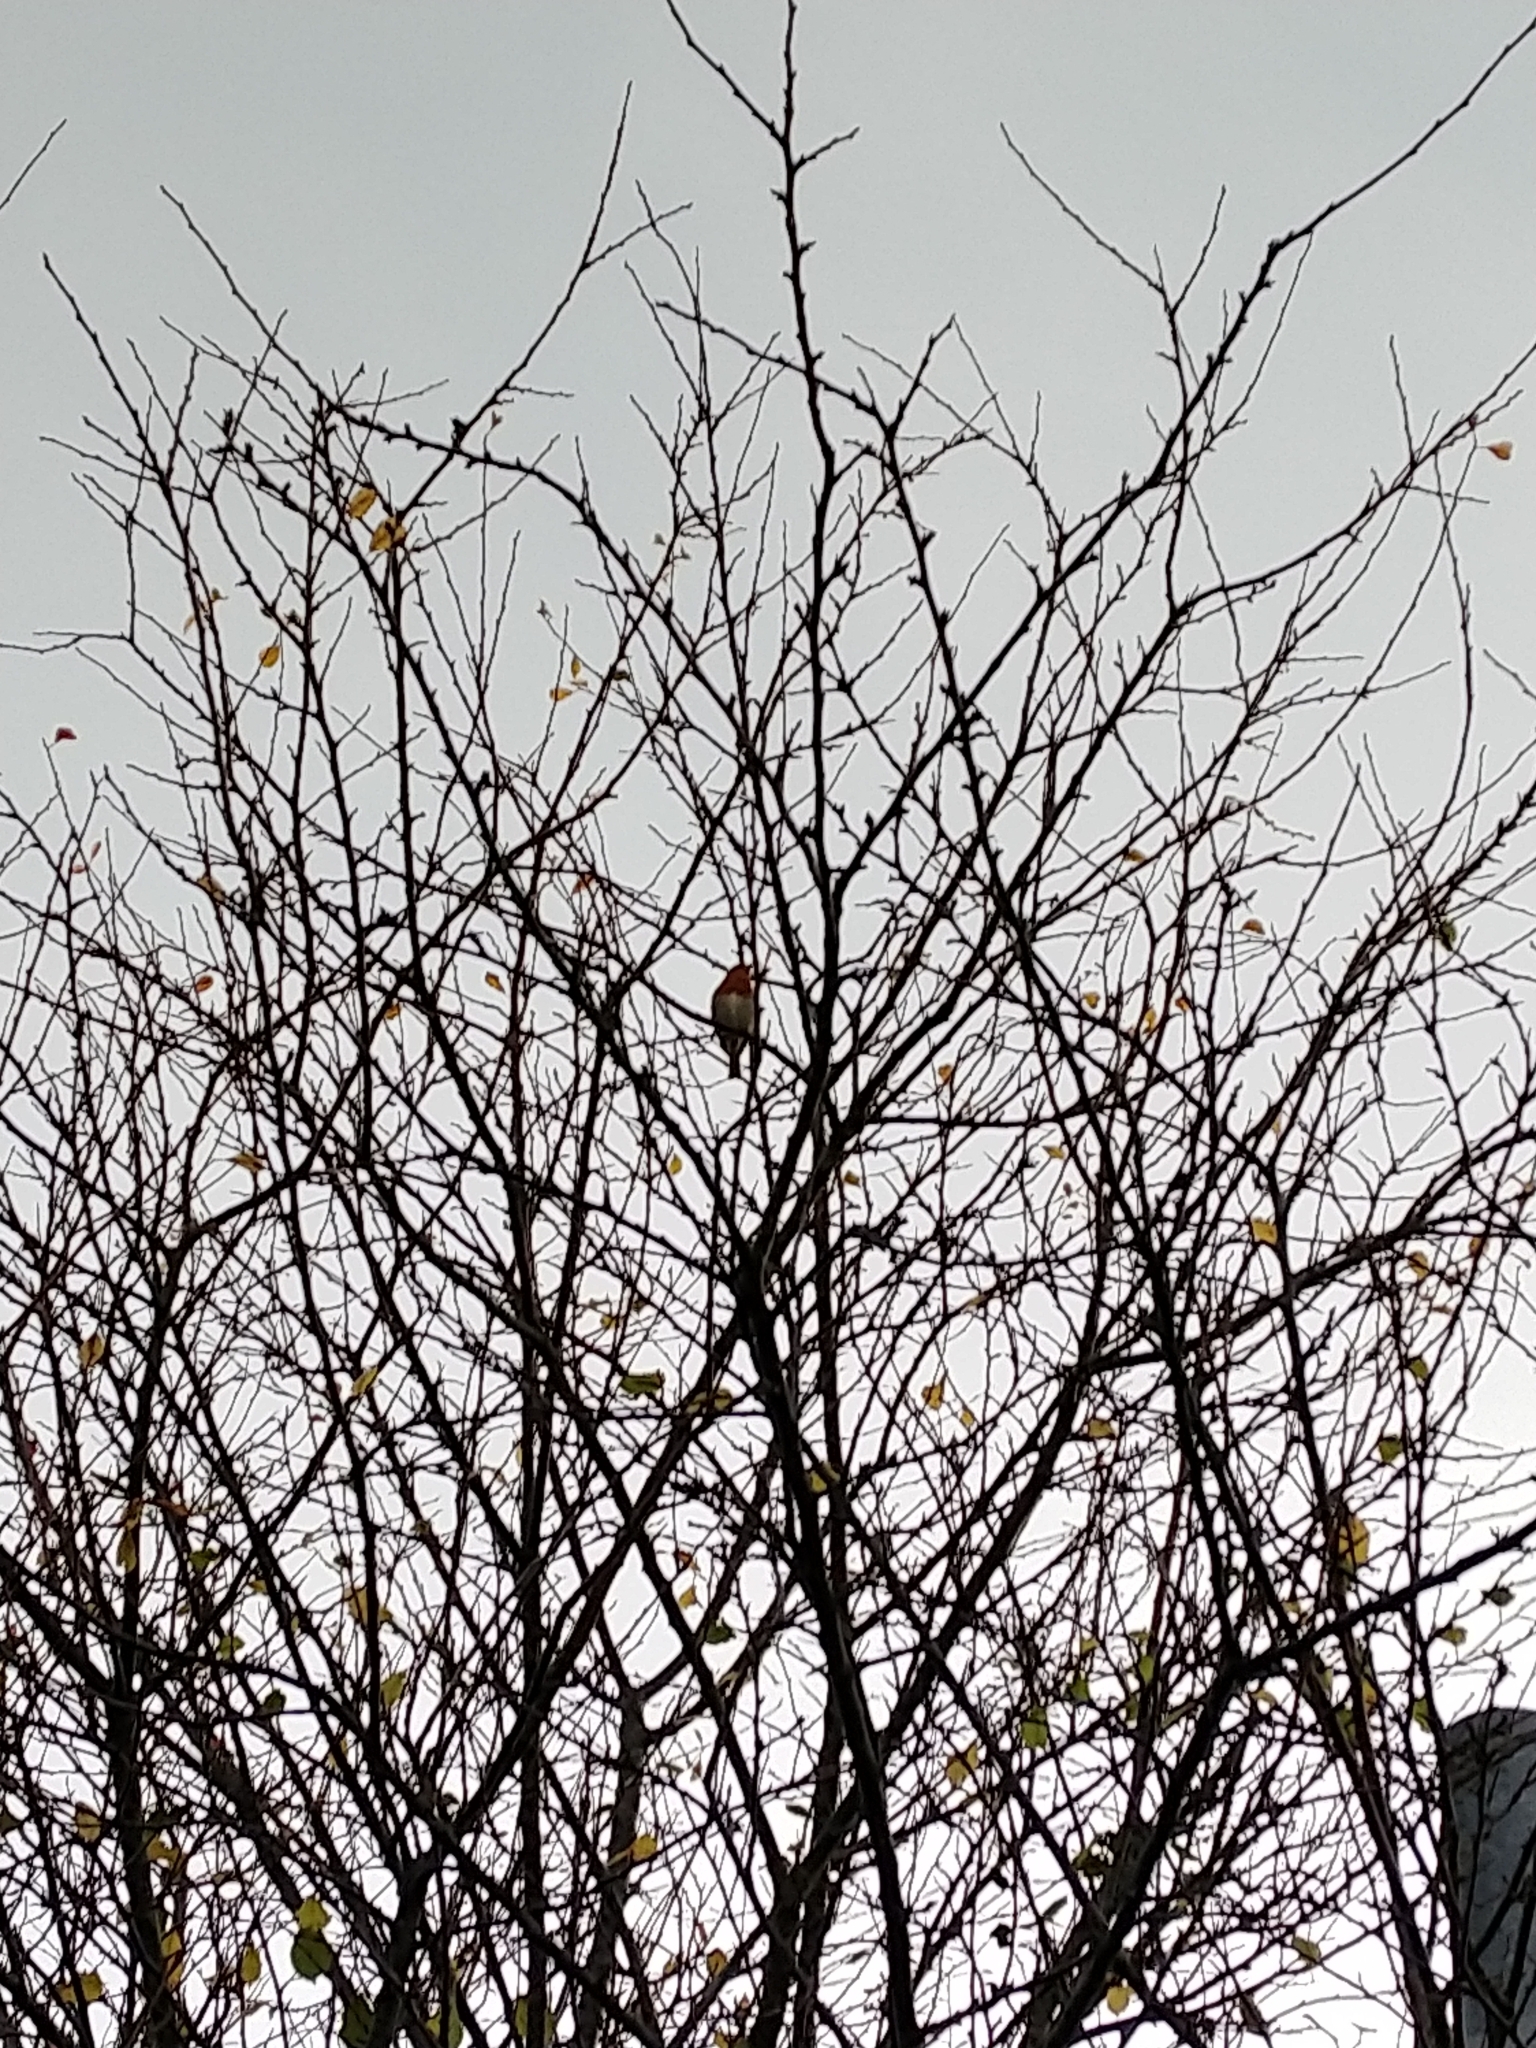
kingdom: Animalia
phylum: Chordata
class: Aves
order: Passeriformes
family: Muscicapidae
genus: Erithacus
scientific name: Erithacus rubecula
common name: European robin
